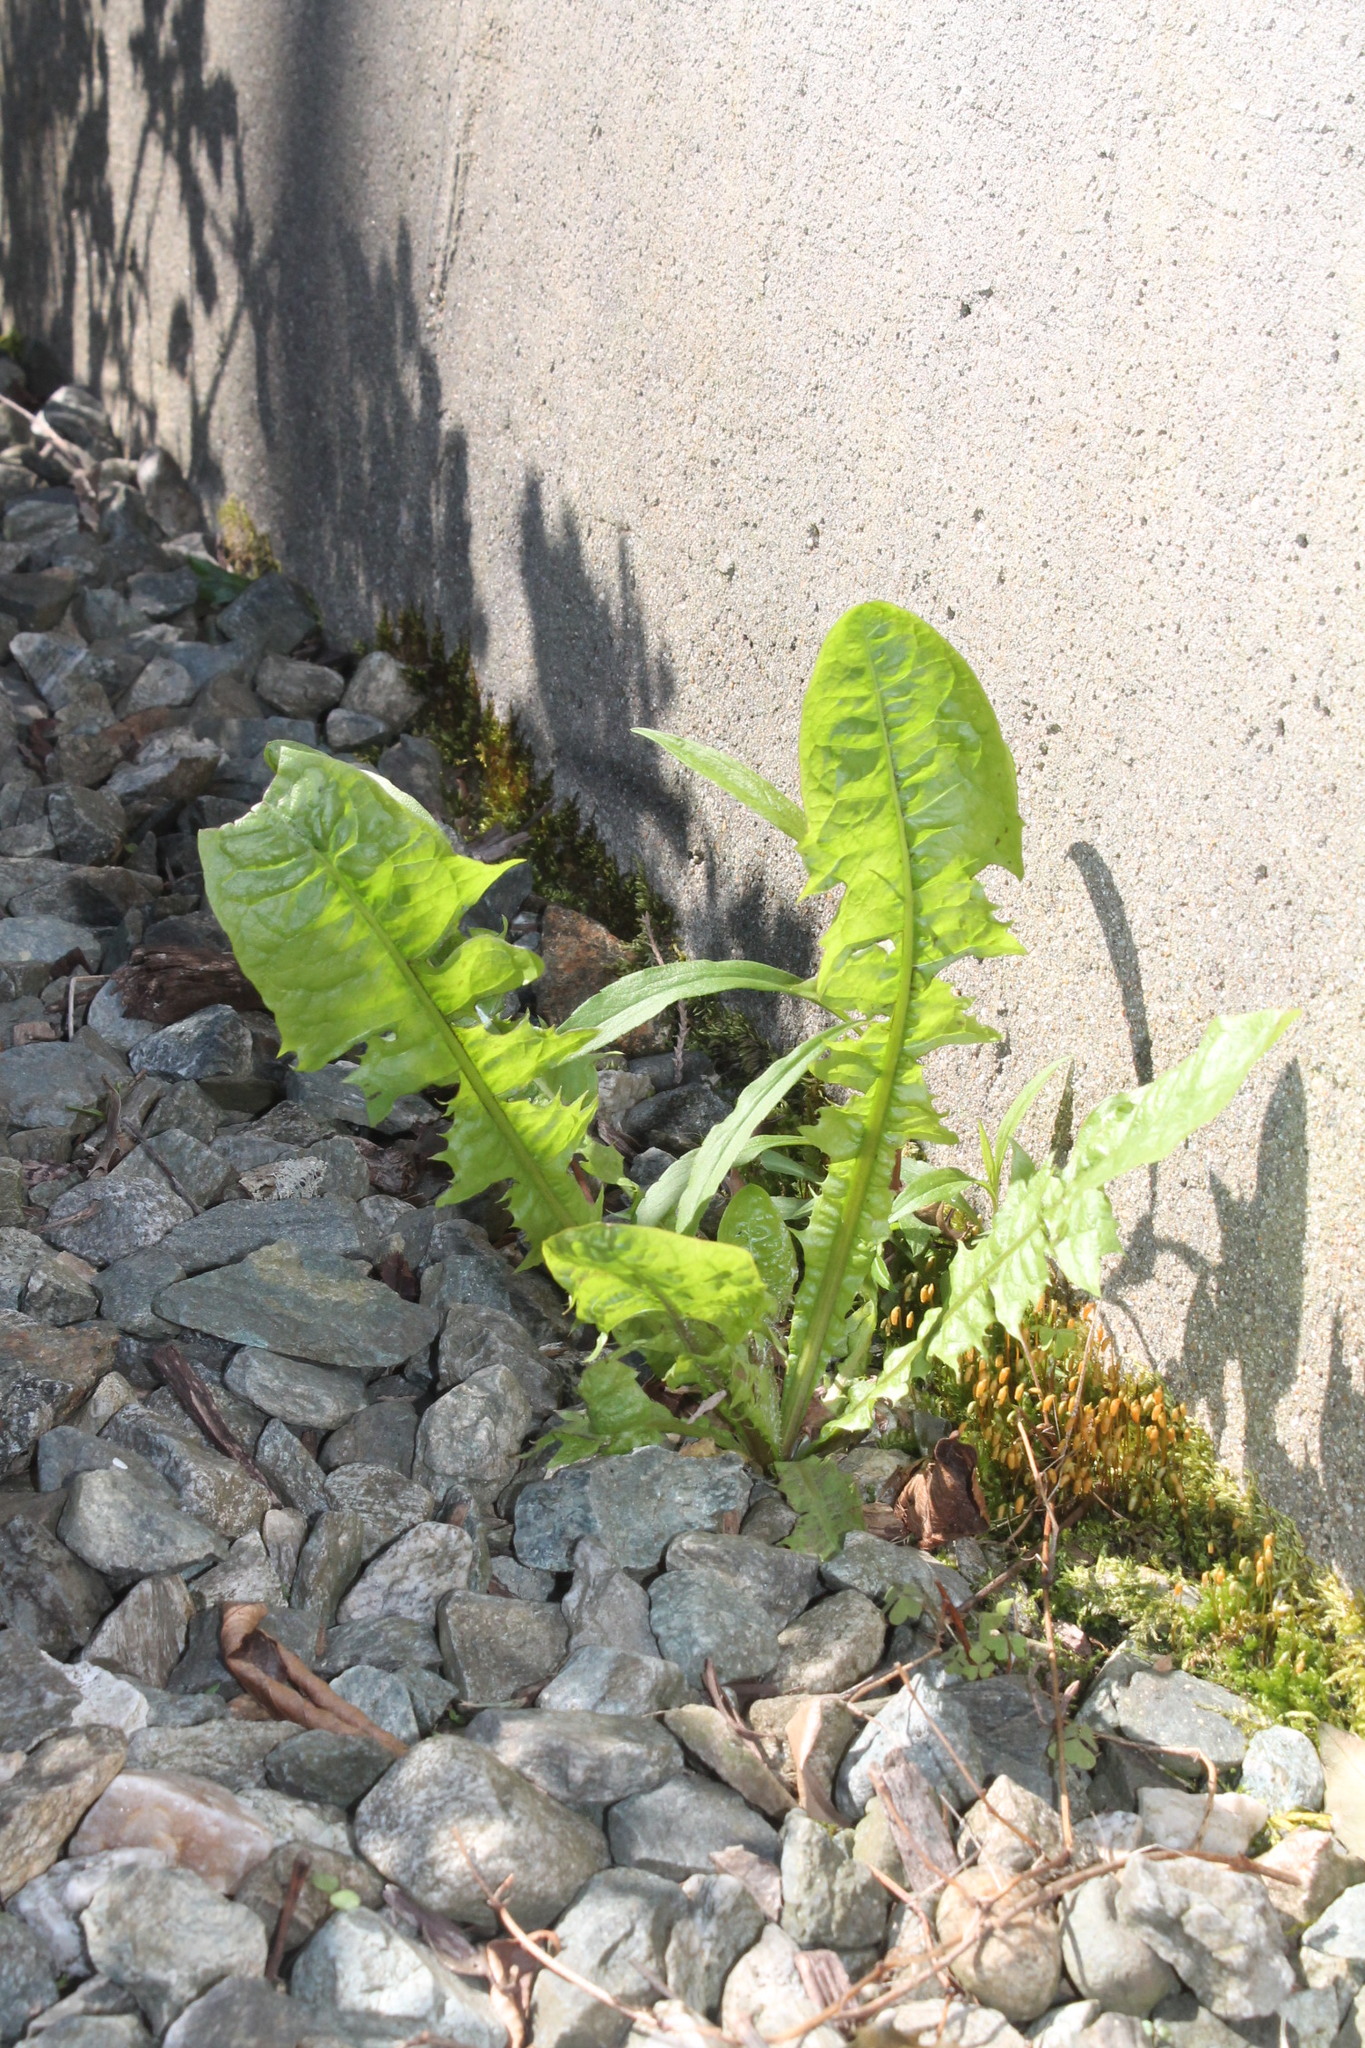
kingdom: Plantae
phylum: Tracheophyta
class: Magnoliopsida
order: Asterales
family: Asteraceae
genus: Taraxacum
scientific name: Taraxacum officinale
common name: Common dandelion
